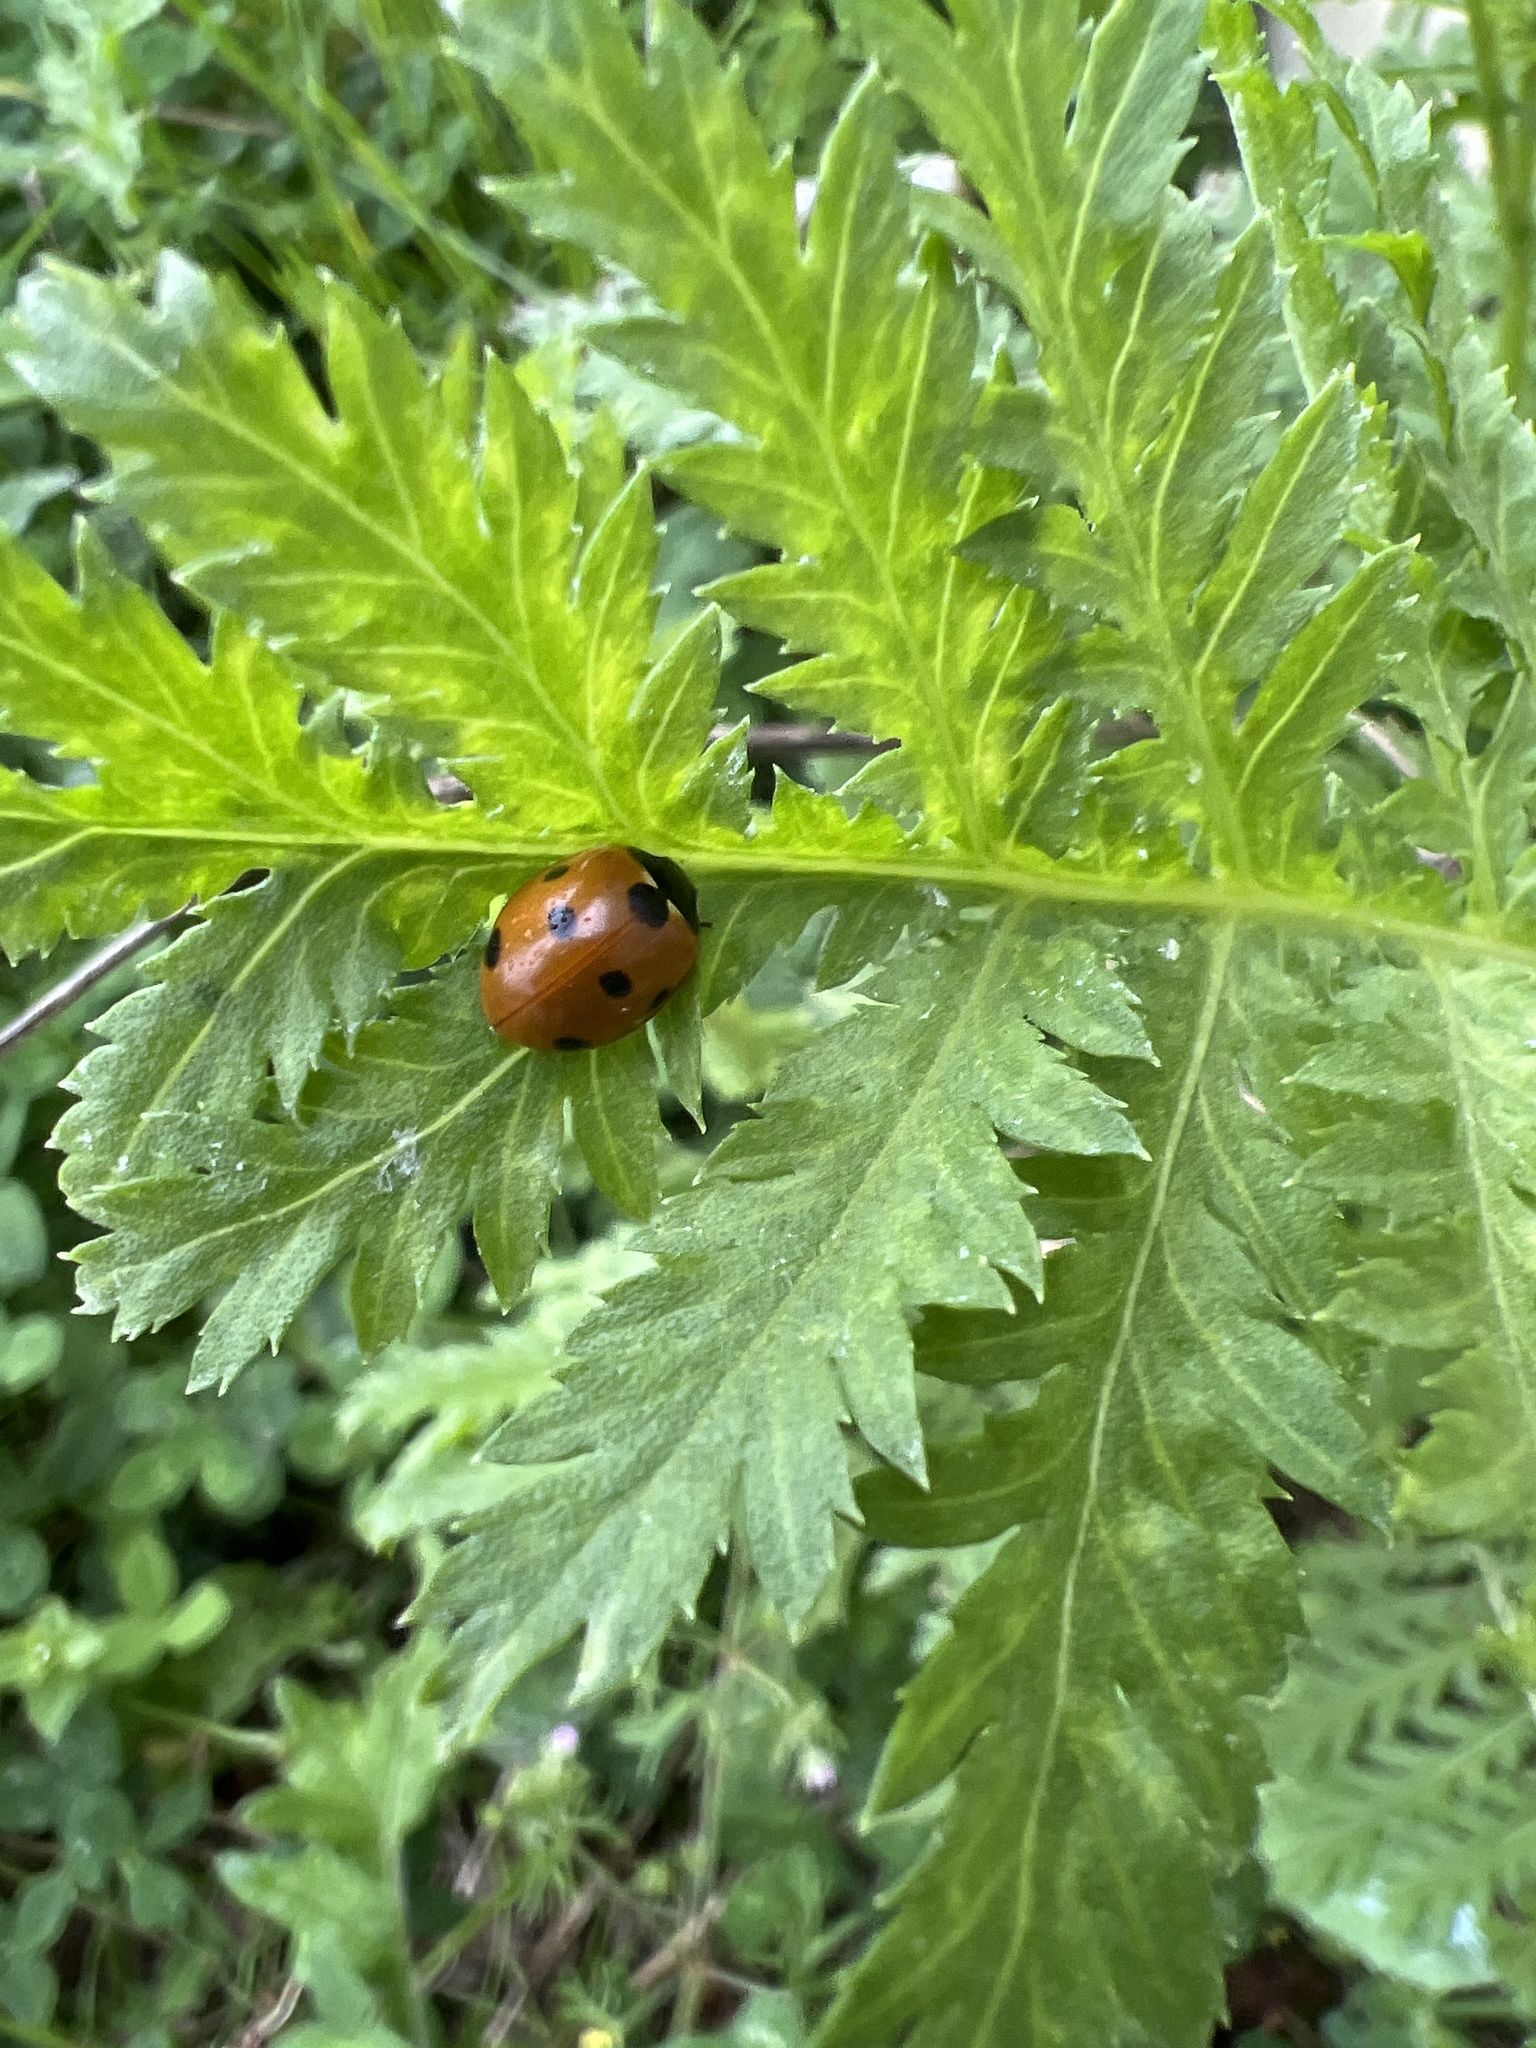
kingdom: Animalia
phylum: Arthropoda
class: Insecta
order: Coleoptera
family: Coccinellidae
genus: Coccinella
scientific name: Coccinella septempunctata
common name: Sevenspotted lady beetle
